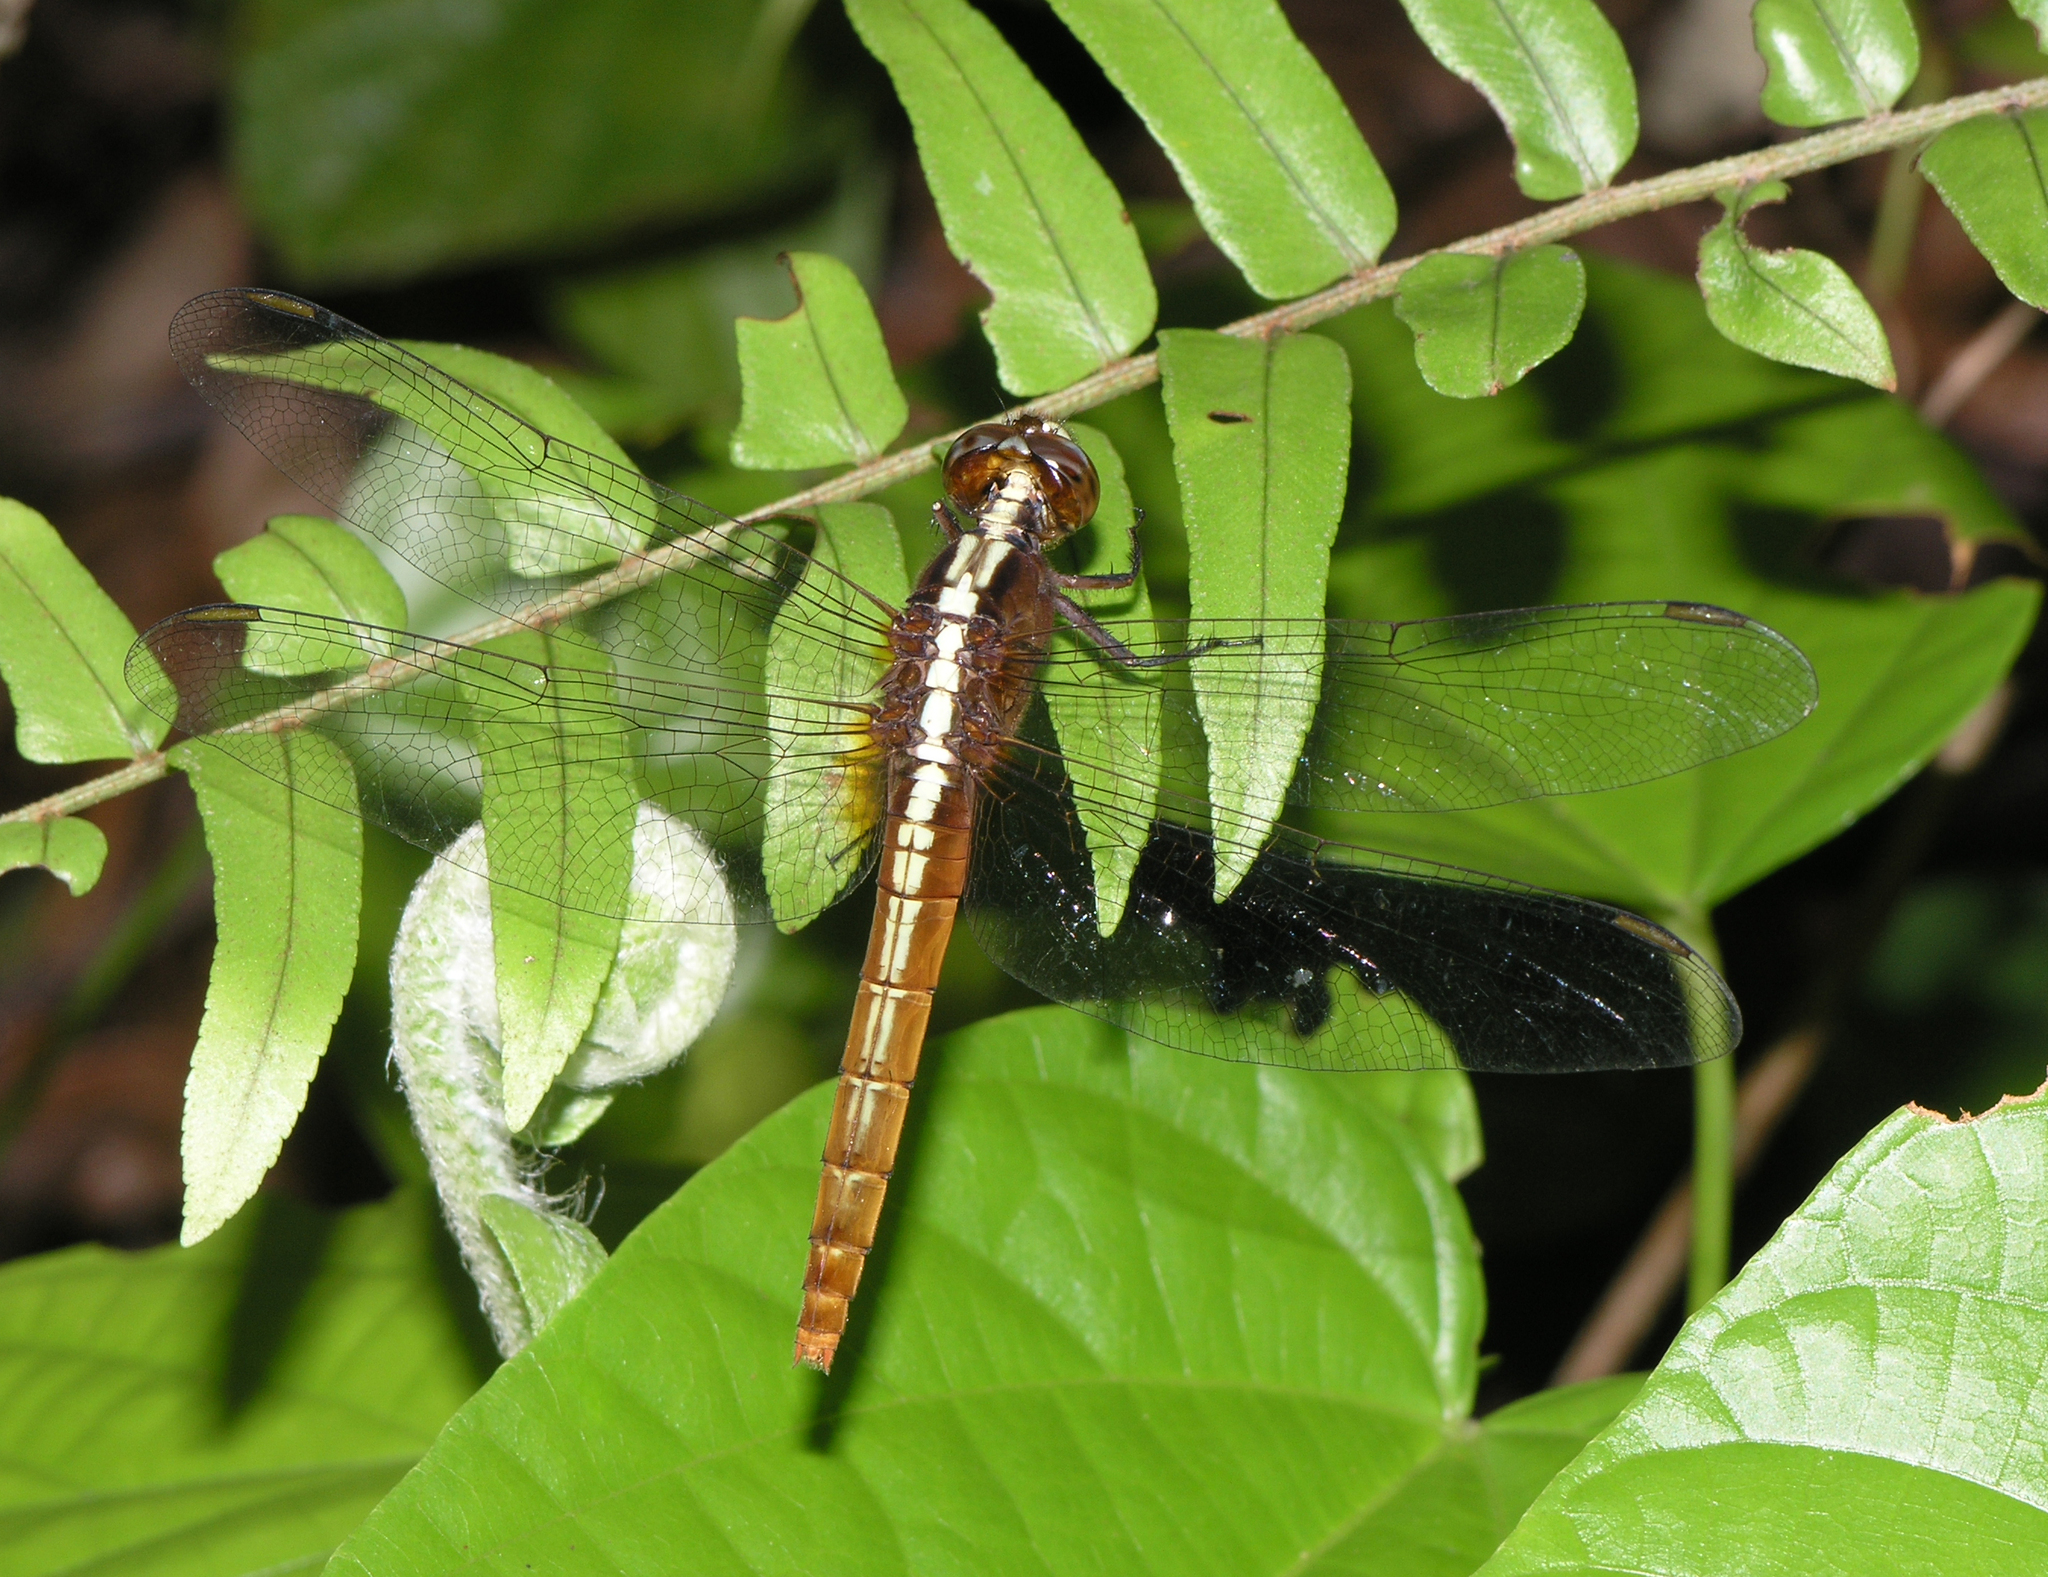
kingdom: Animalia
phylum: Arthropoda
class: Insecta
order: Odonata
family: Libellulidae
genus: Rhodothemis
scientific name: Rhodothemis rufa
